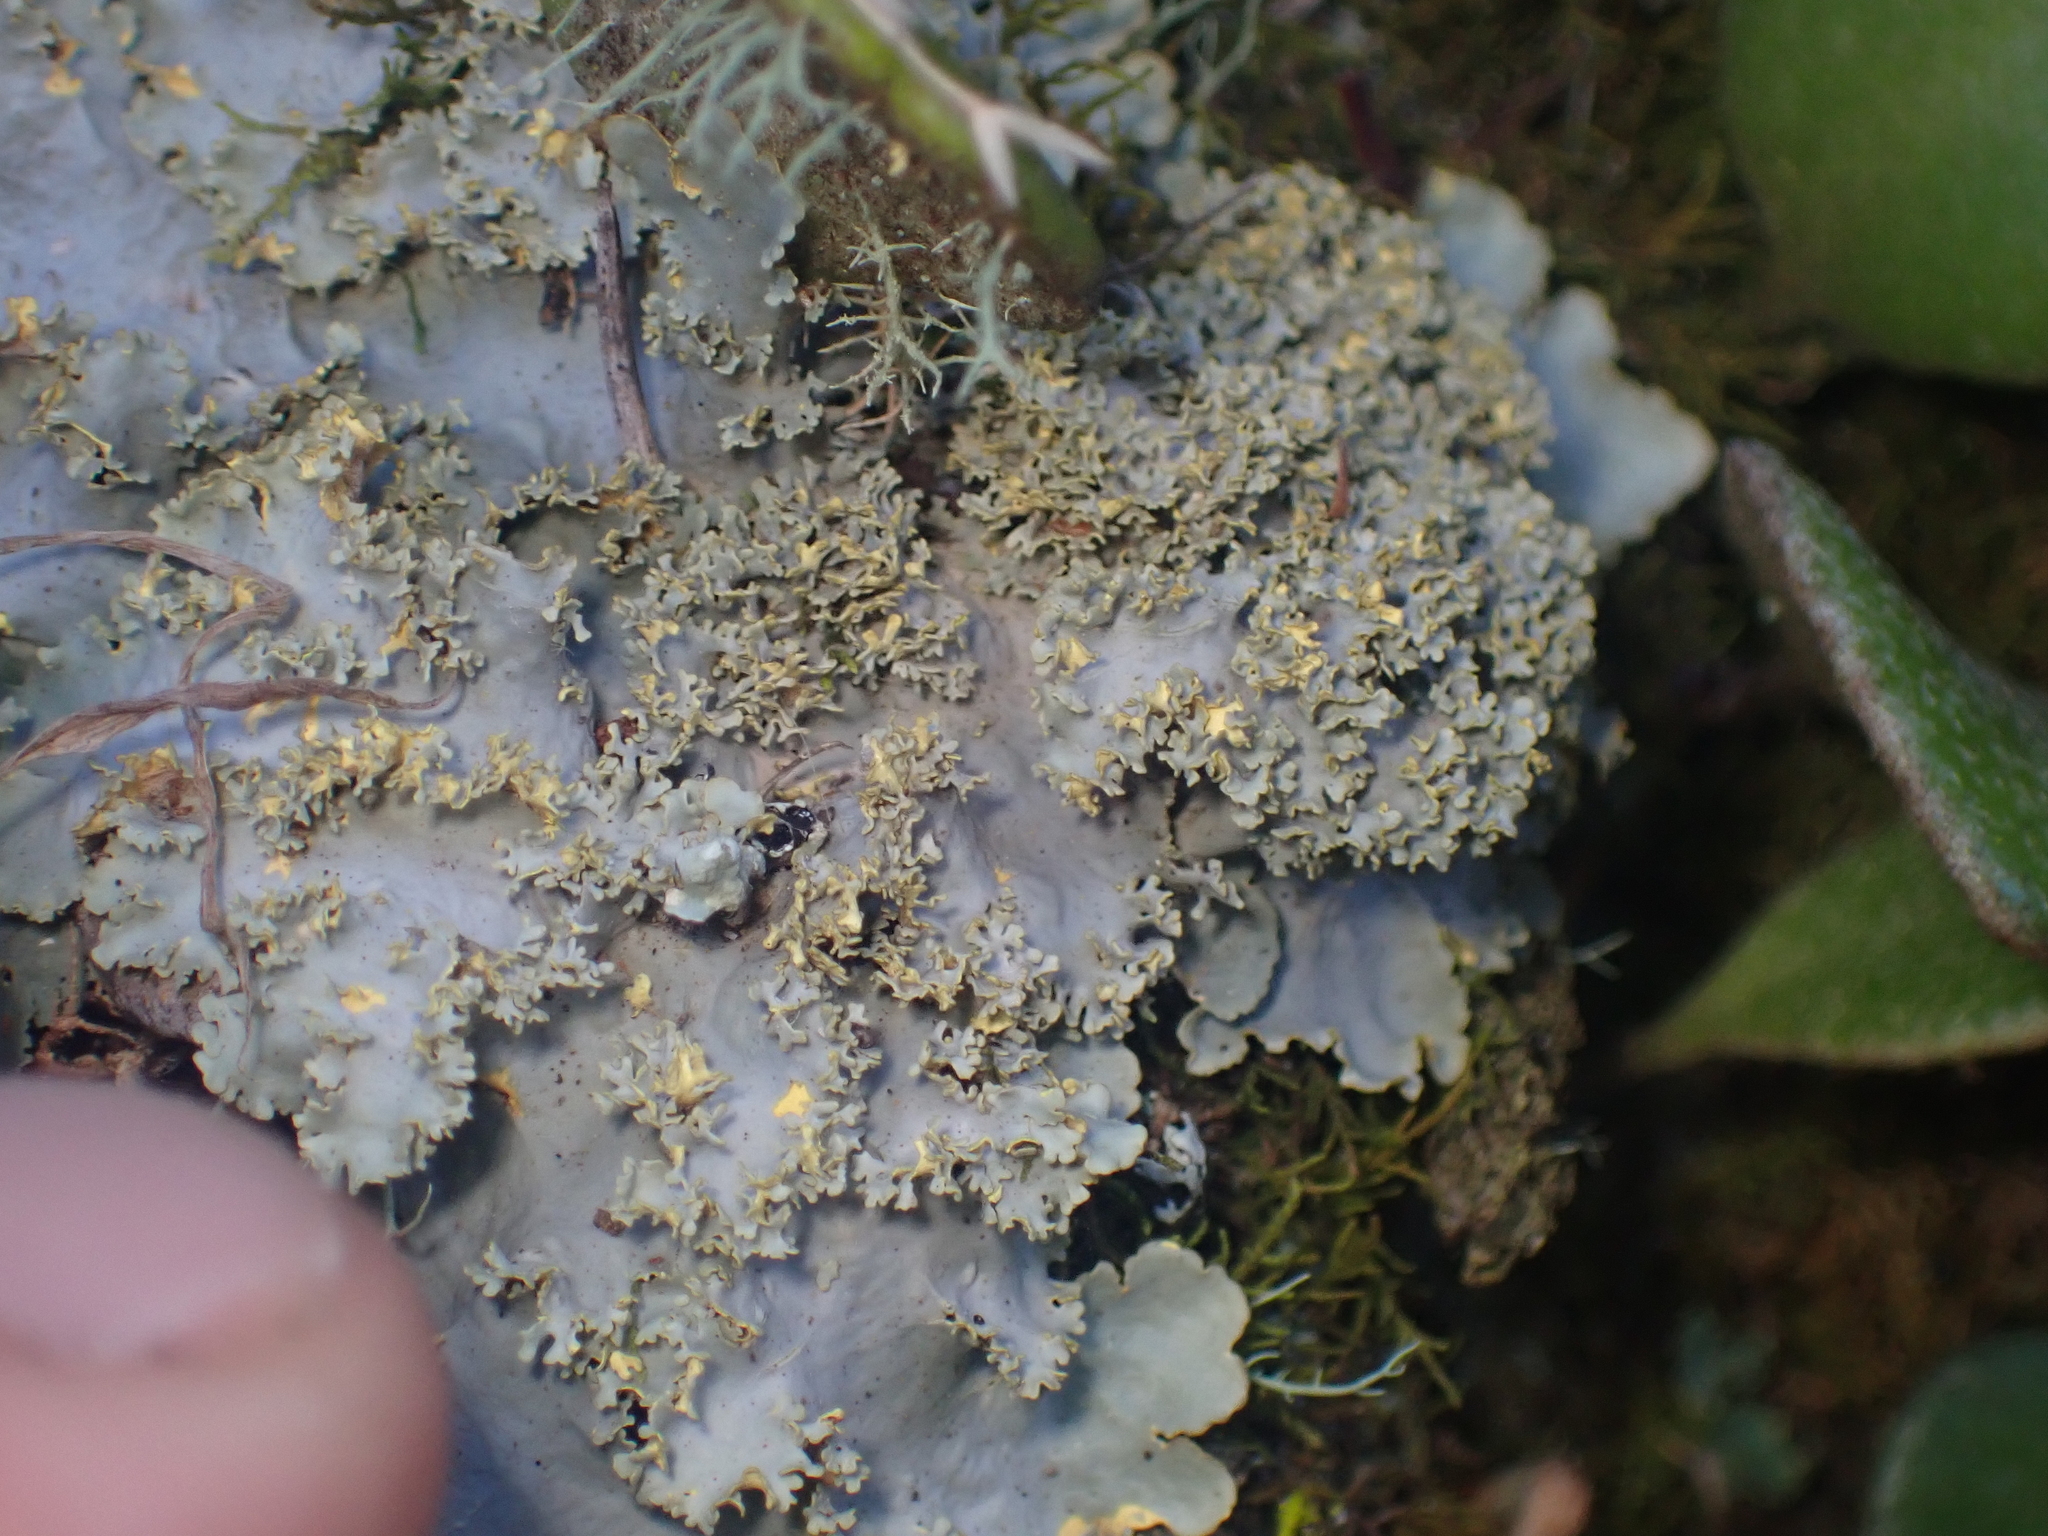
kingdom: Fungi
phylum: Ascomycota
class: Lecanoromycetes
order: Peltigerales
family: Lobariaceae
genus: Podostictina
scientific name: Podostictina pickeringii
